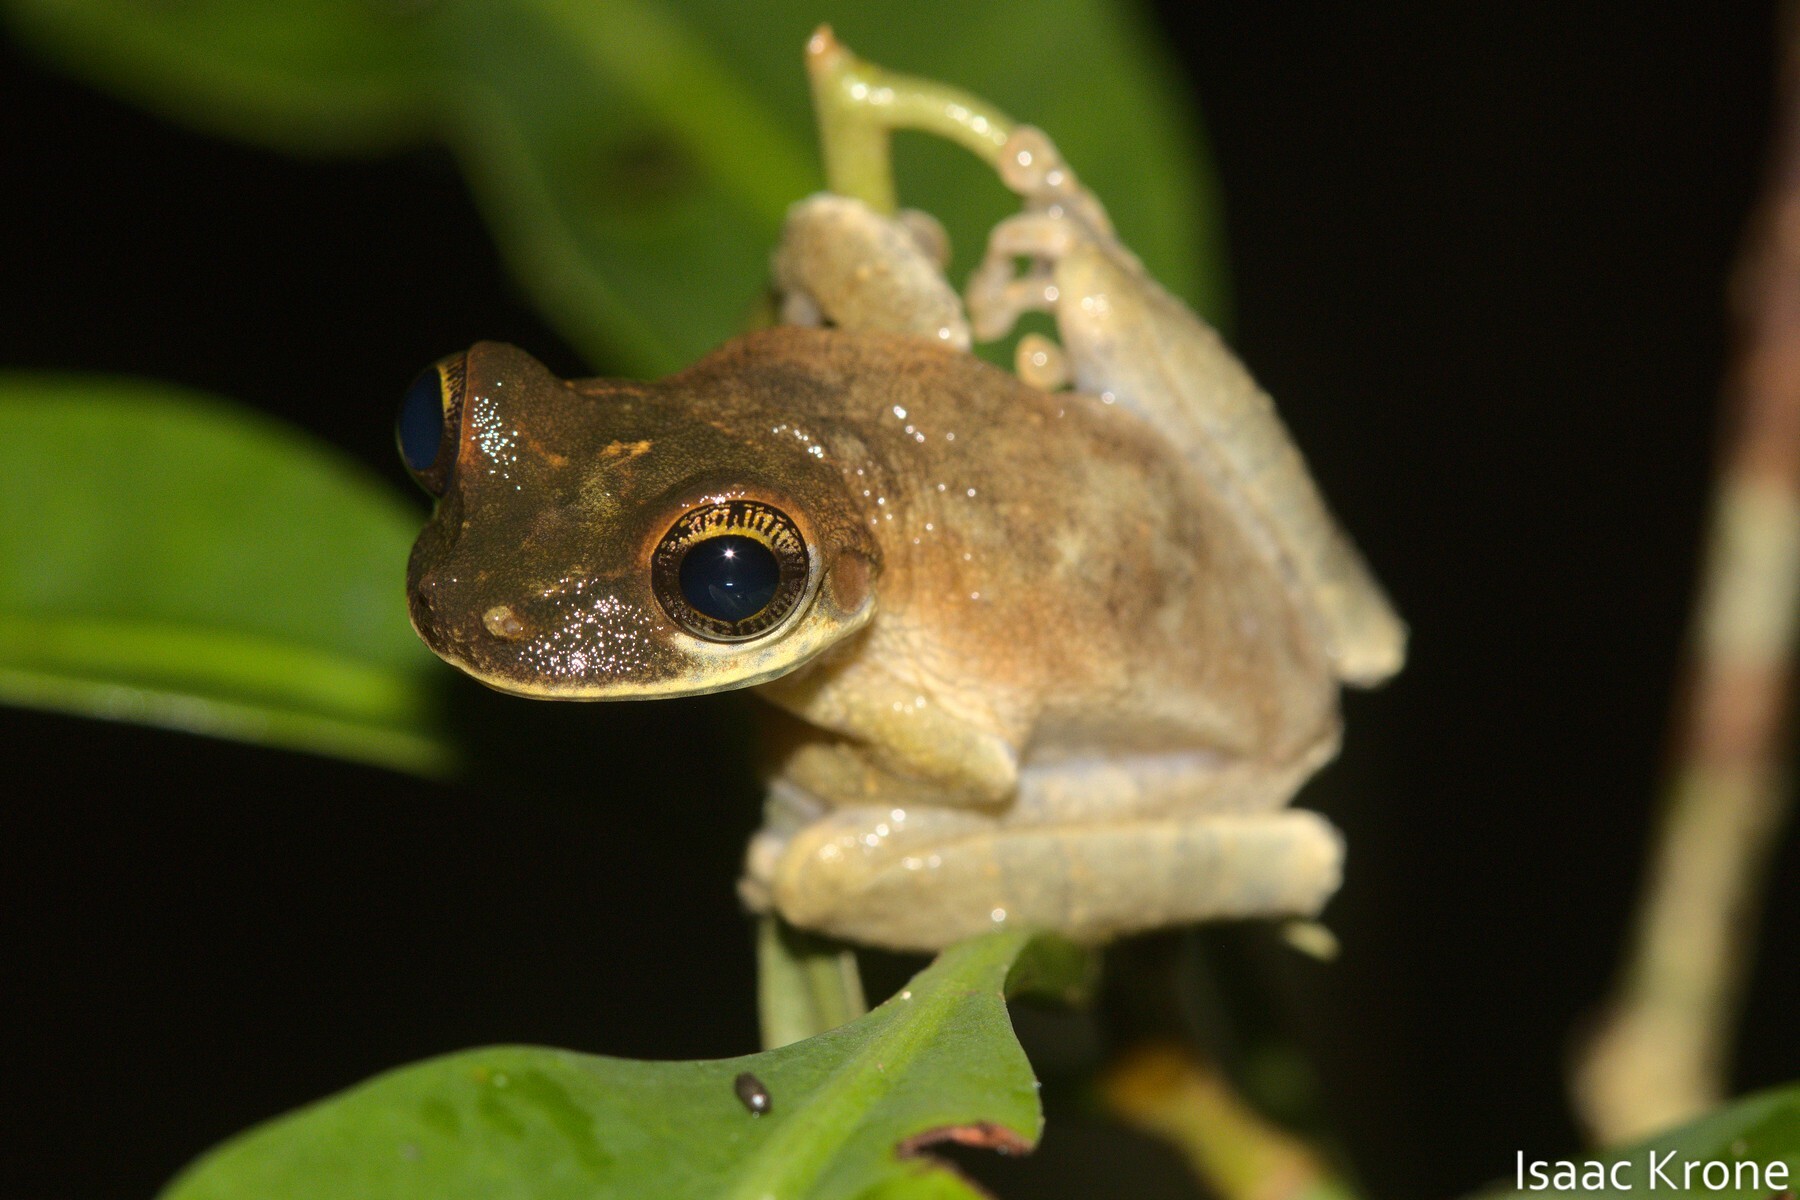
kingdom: Animalia
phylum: Chordata
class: Amphibia
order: Anura
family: Hylidae
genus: Osteocephalus
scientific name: Osteocephalus deridens
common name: Funny slender-legged treefrog
